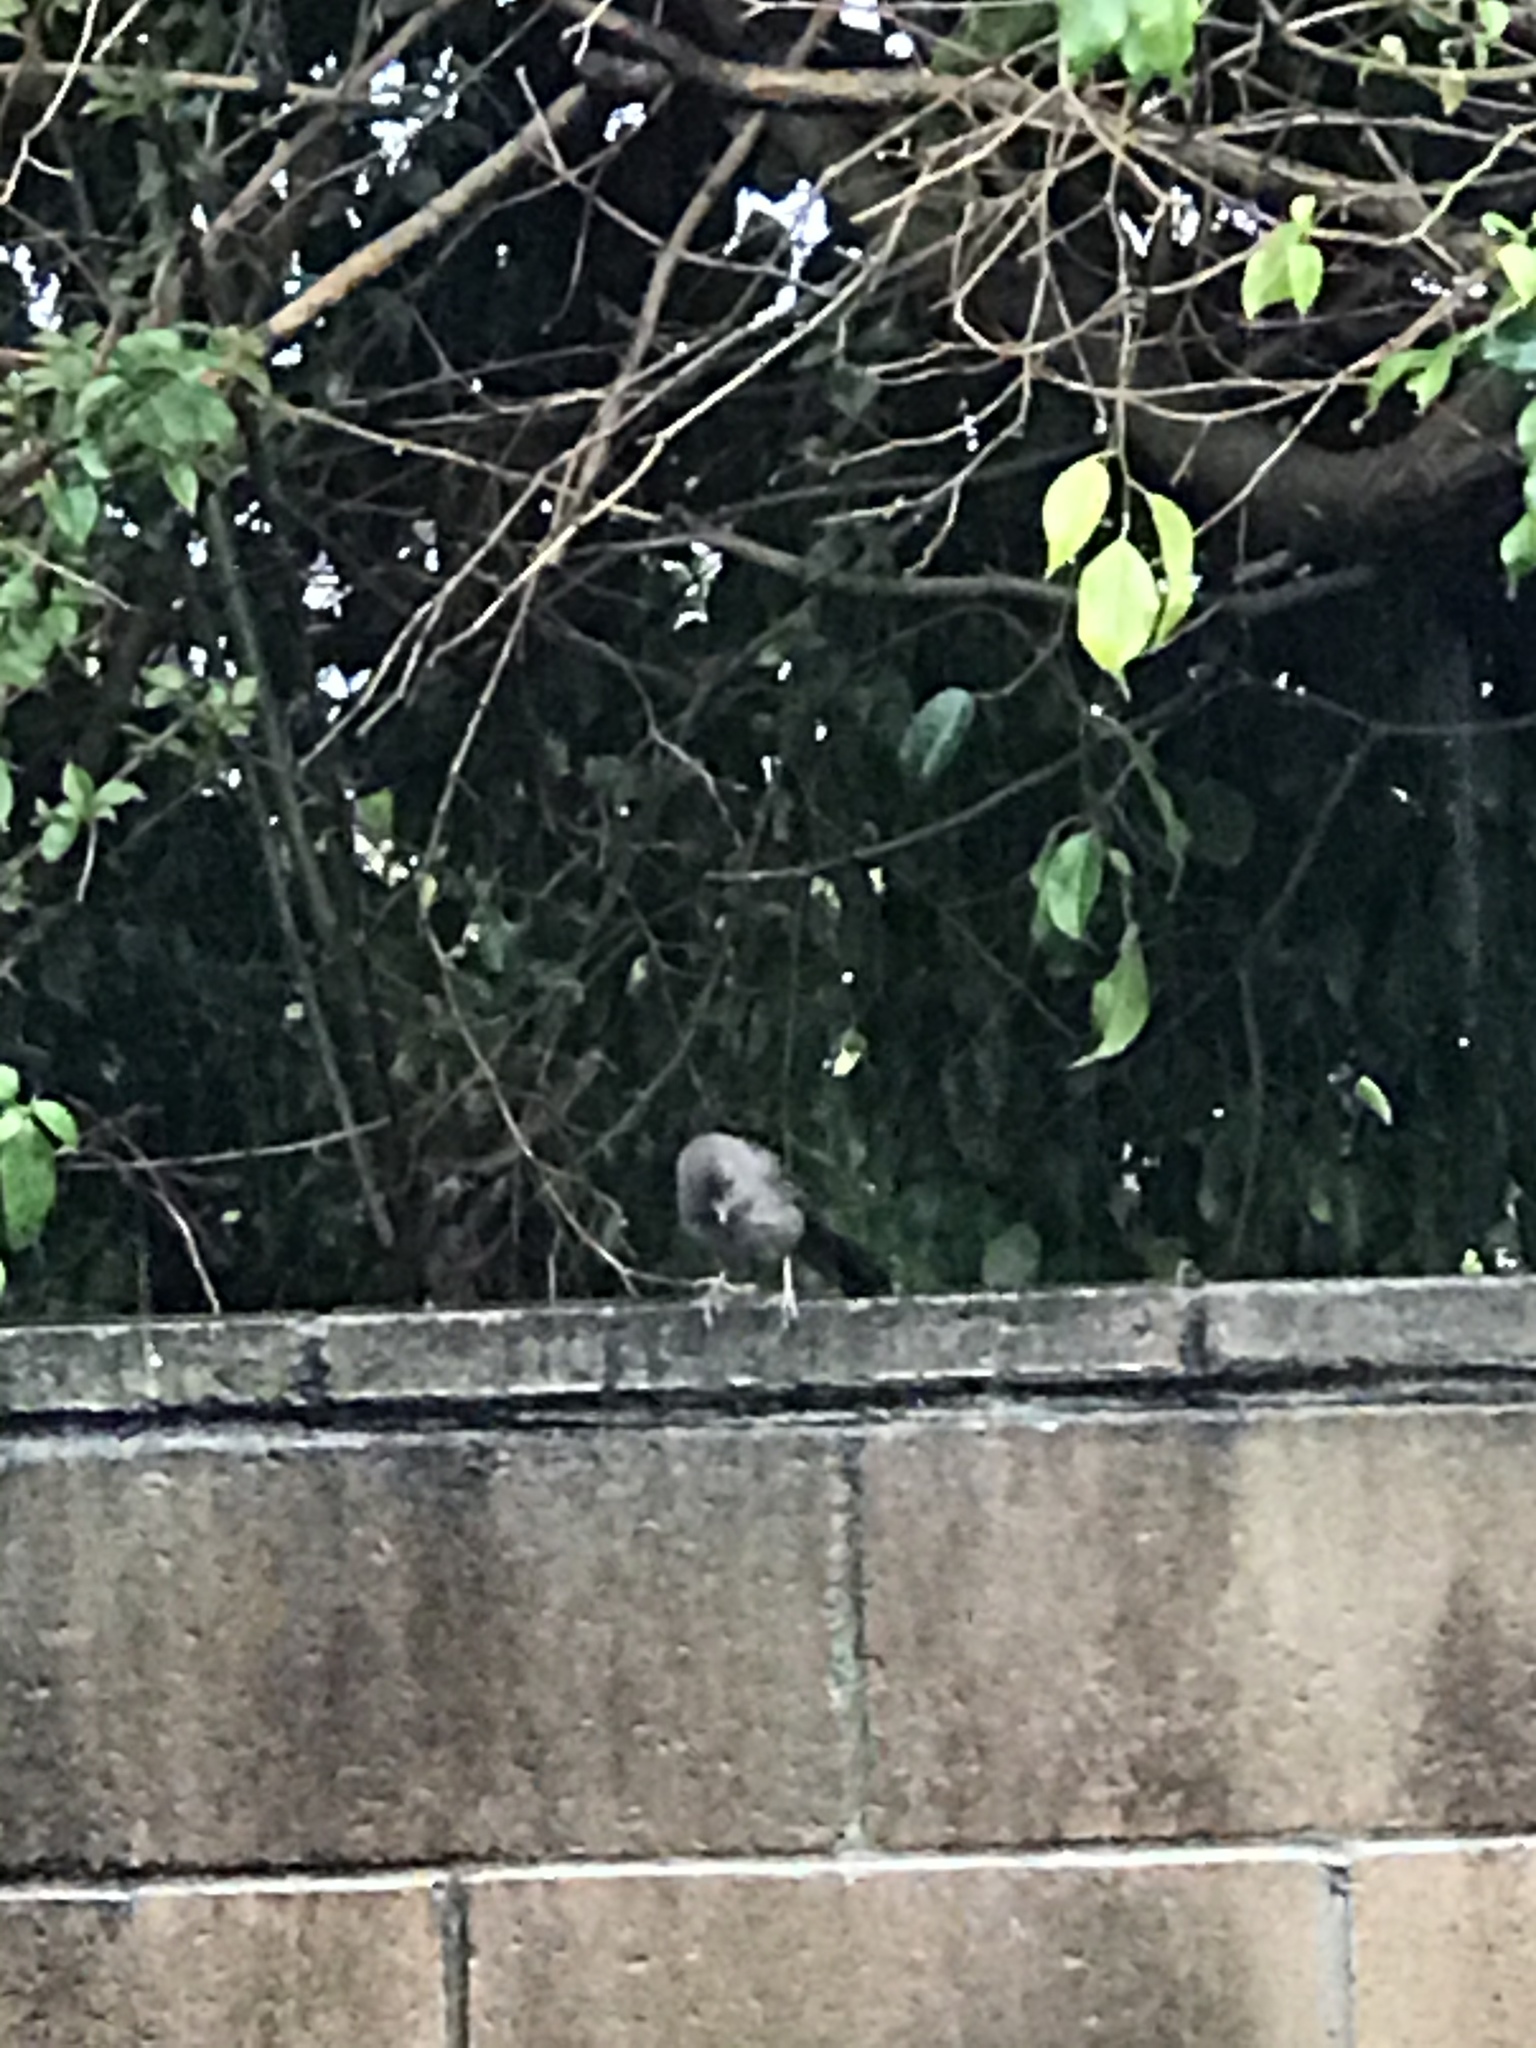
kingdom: Animalia
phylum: Chordata
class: Aves
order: Passeriformes
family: Passerellidae
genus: Melozone
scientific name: Melozone crissalis
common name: California towhee
